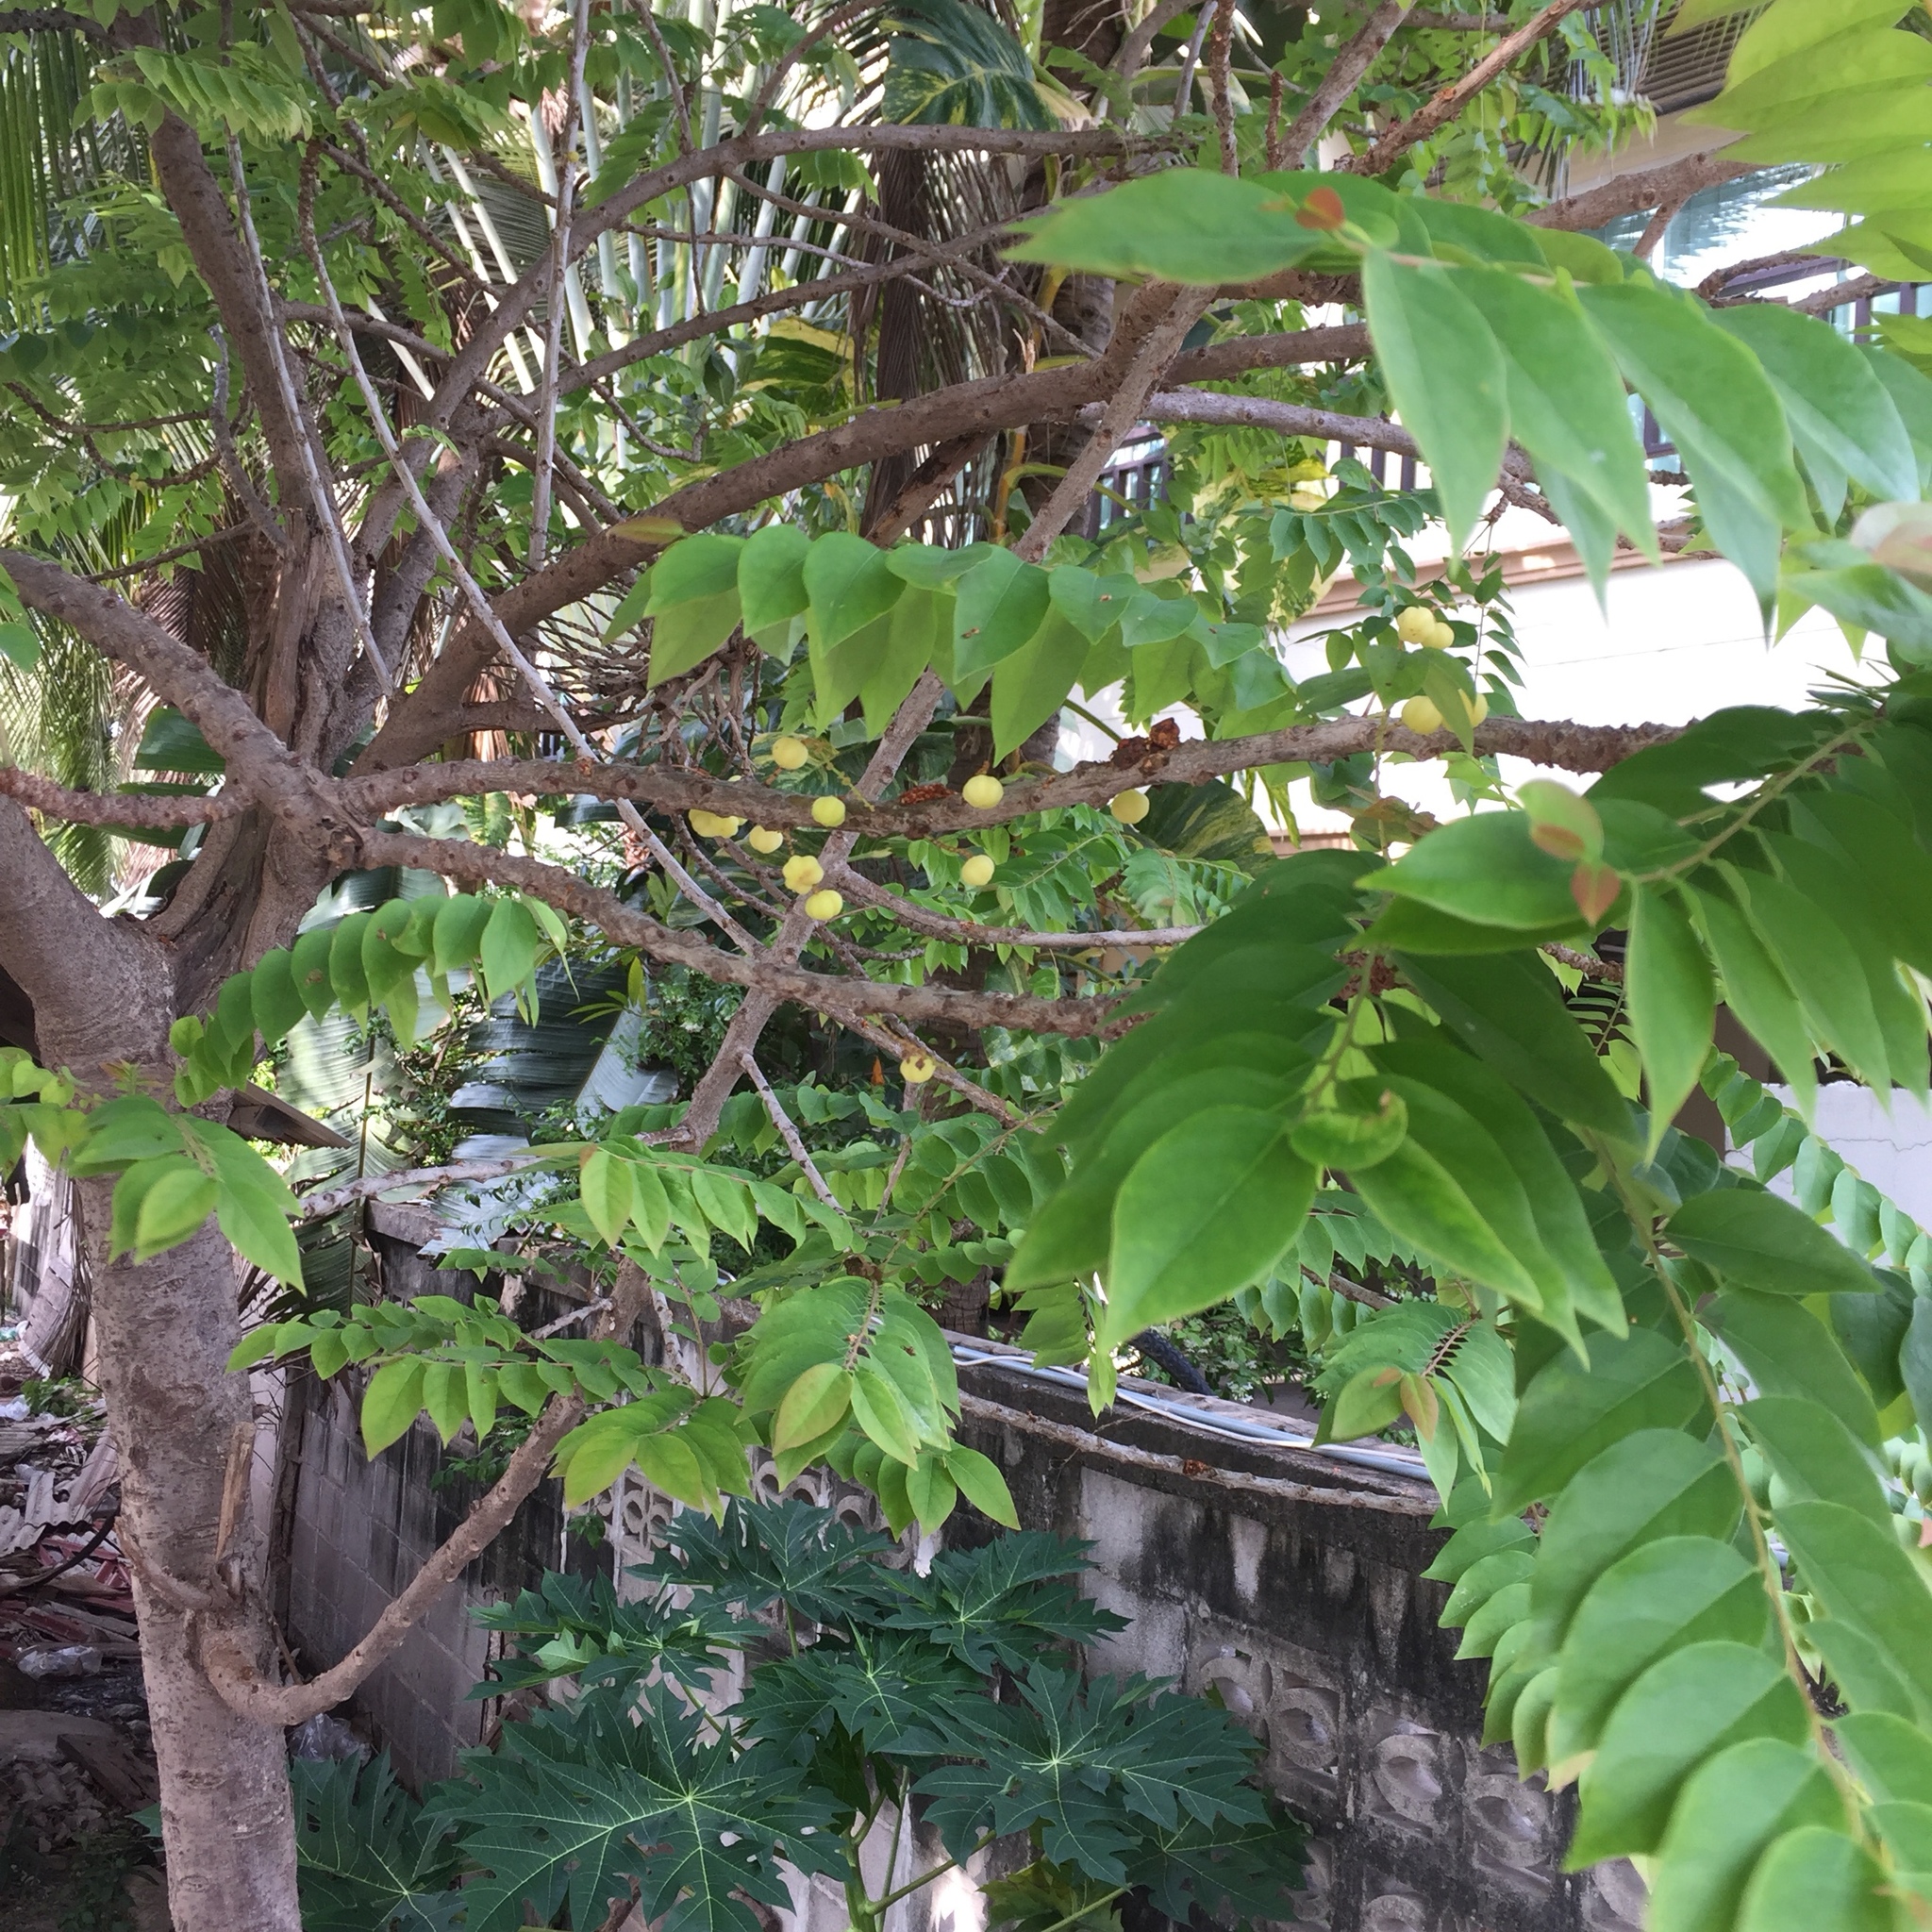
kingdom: Plantae
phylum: Tracheophyta
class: Magnoliopsida
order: Malpighiales
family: Phyllanthaceae
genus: Phyllanthus
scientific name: Phyllanthus acidus
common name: Tahitian gooseberry tree
